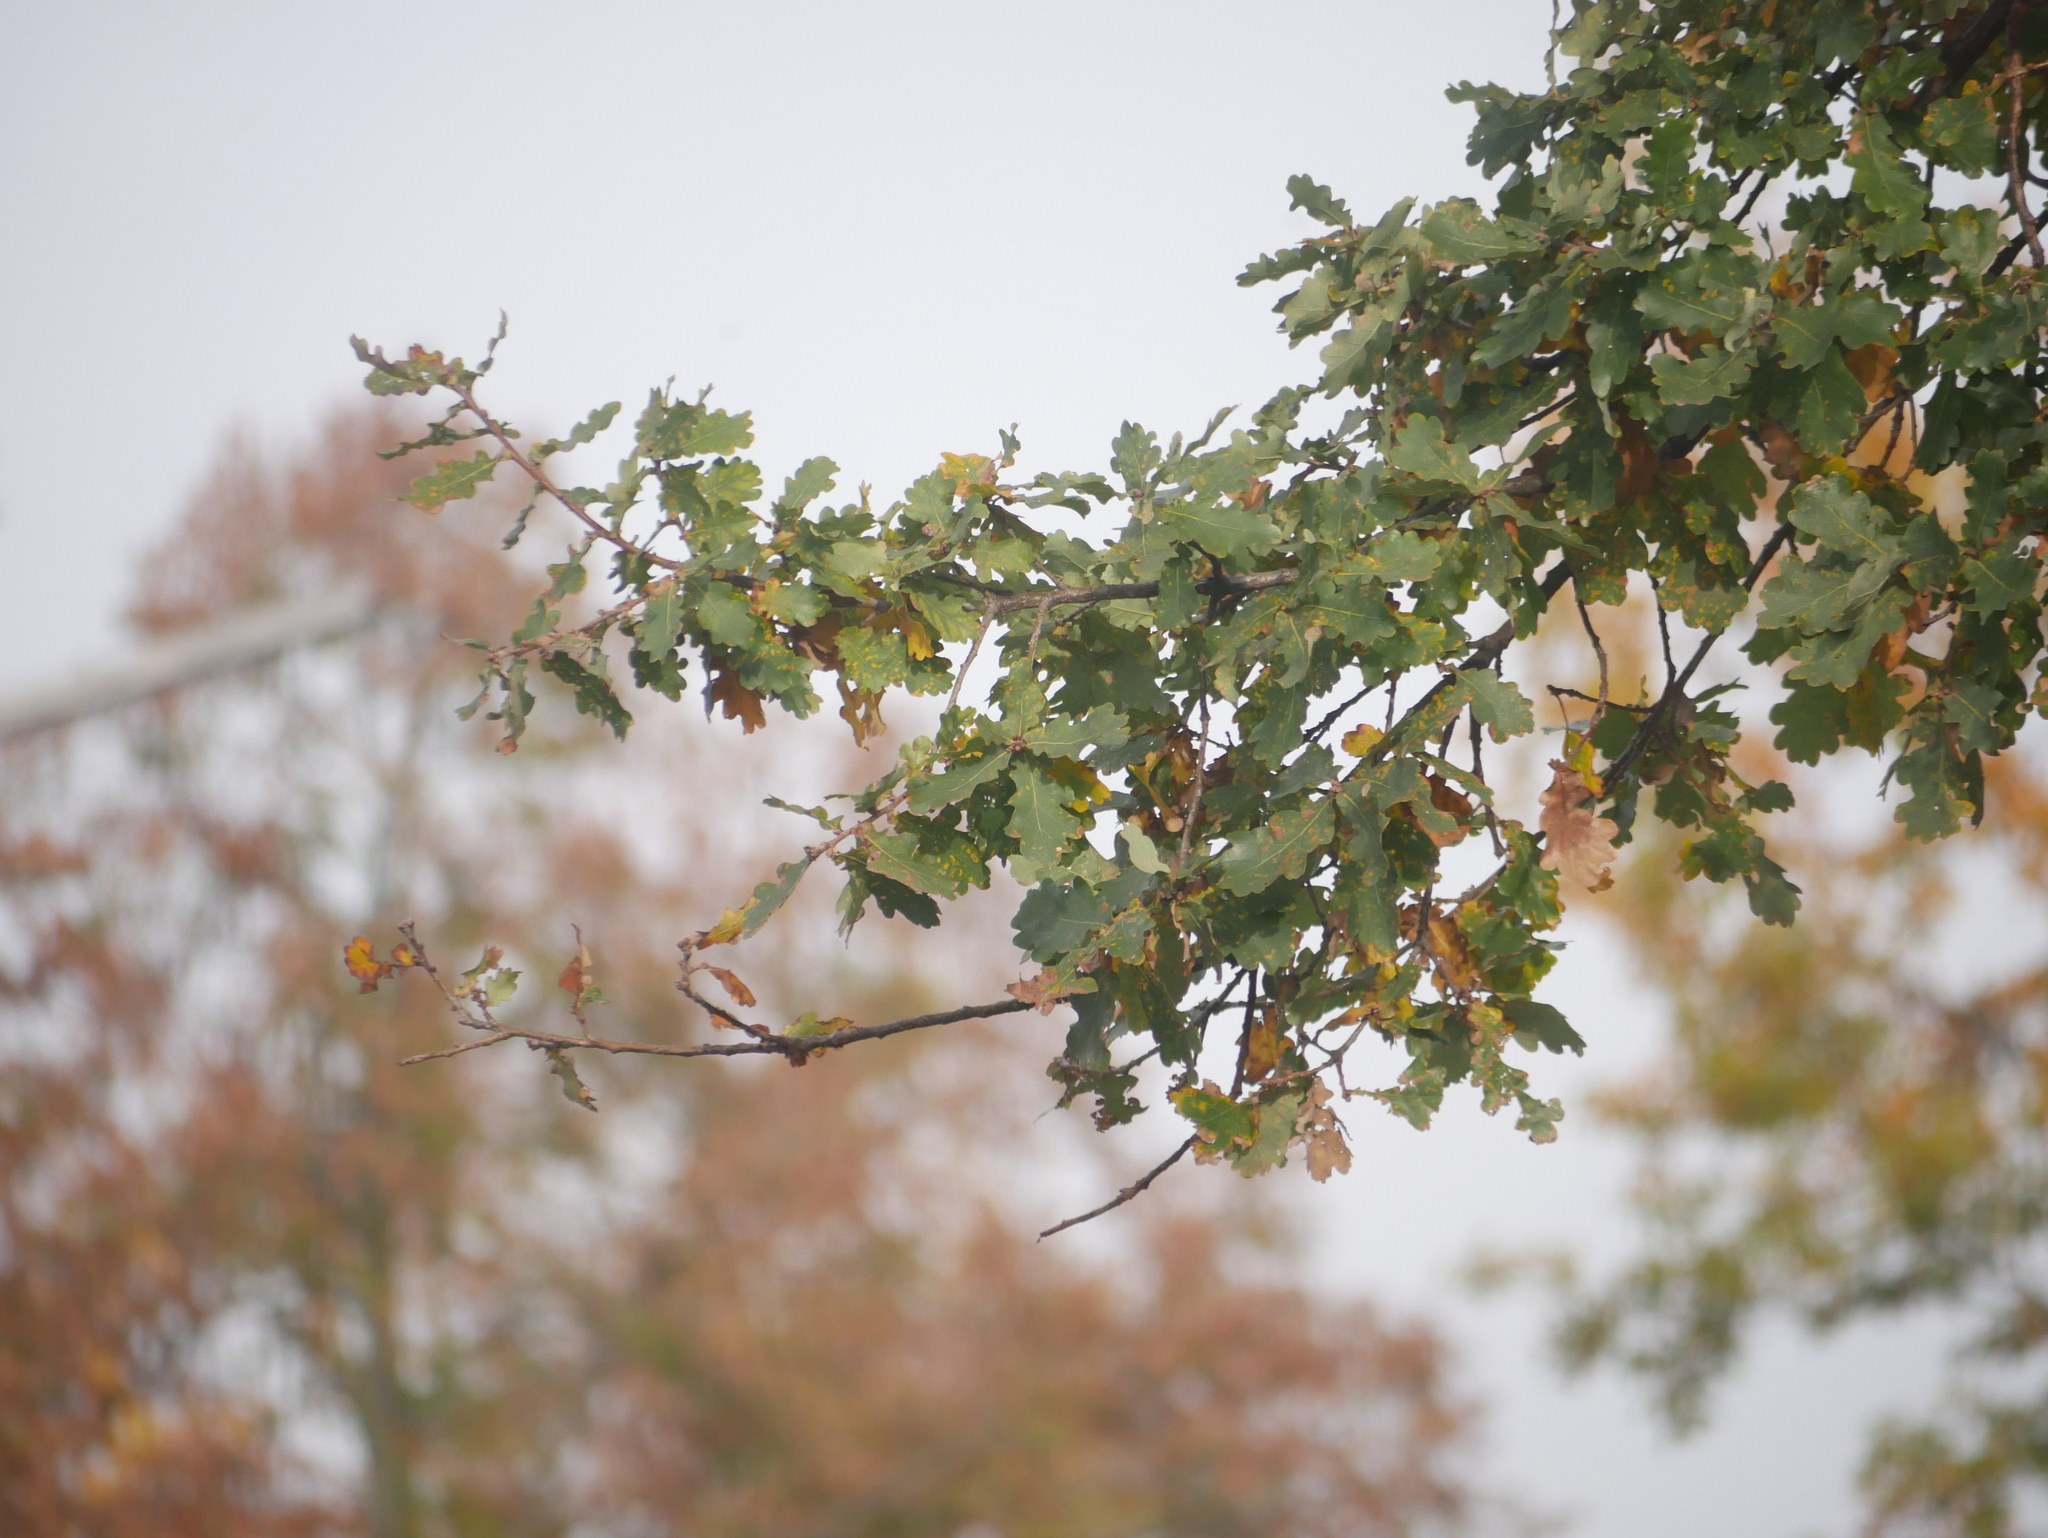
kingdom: Plantae
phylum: Tracheophyta
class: Magnoliopsida
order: Fagales
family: Fagaceae
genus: Quercus
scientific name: Quercus robur
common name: Pedunculate oak
